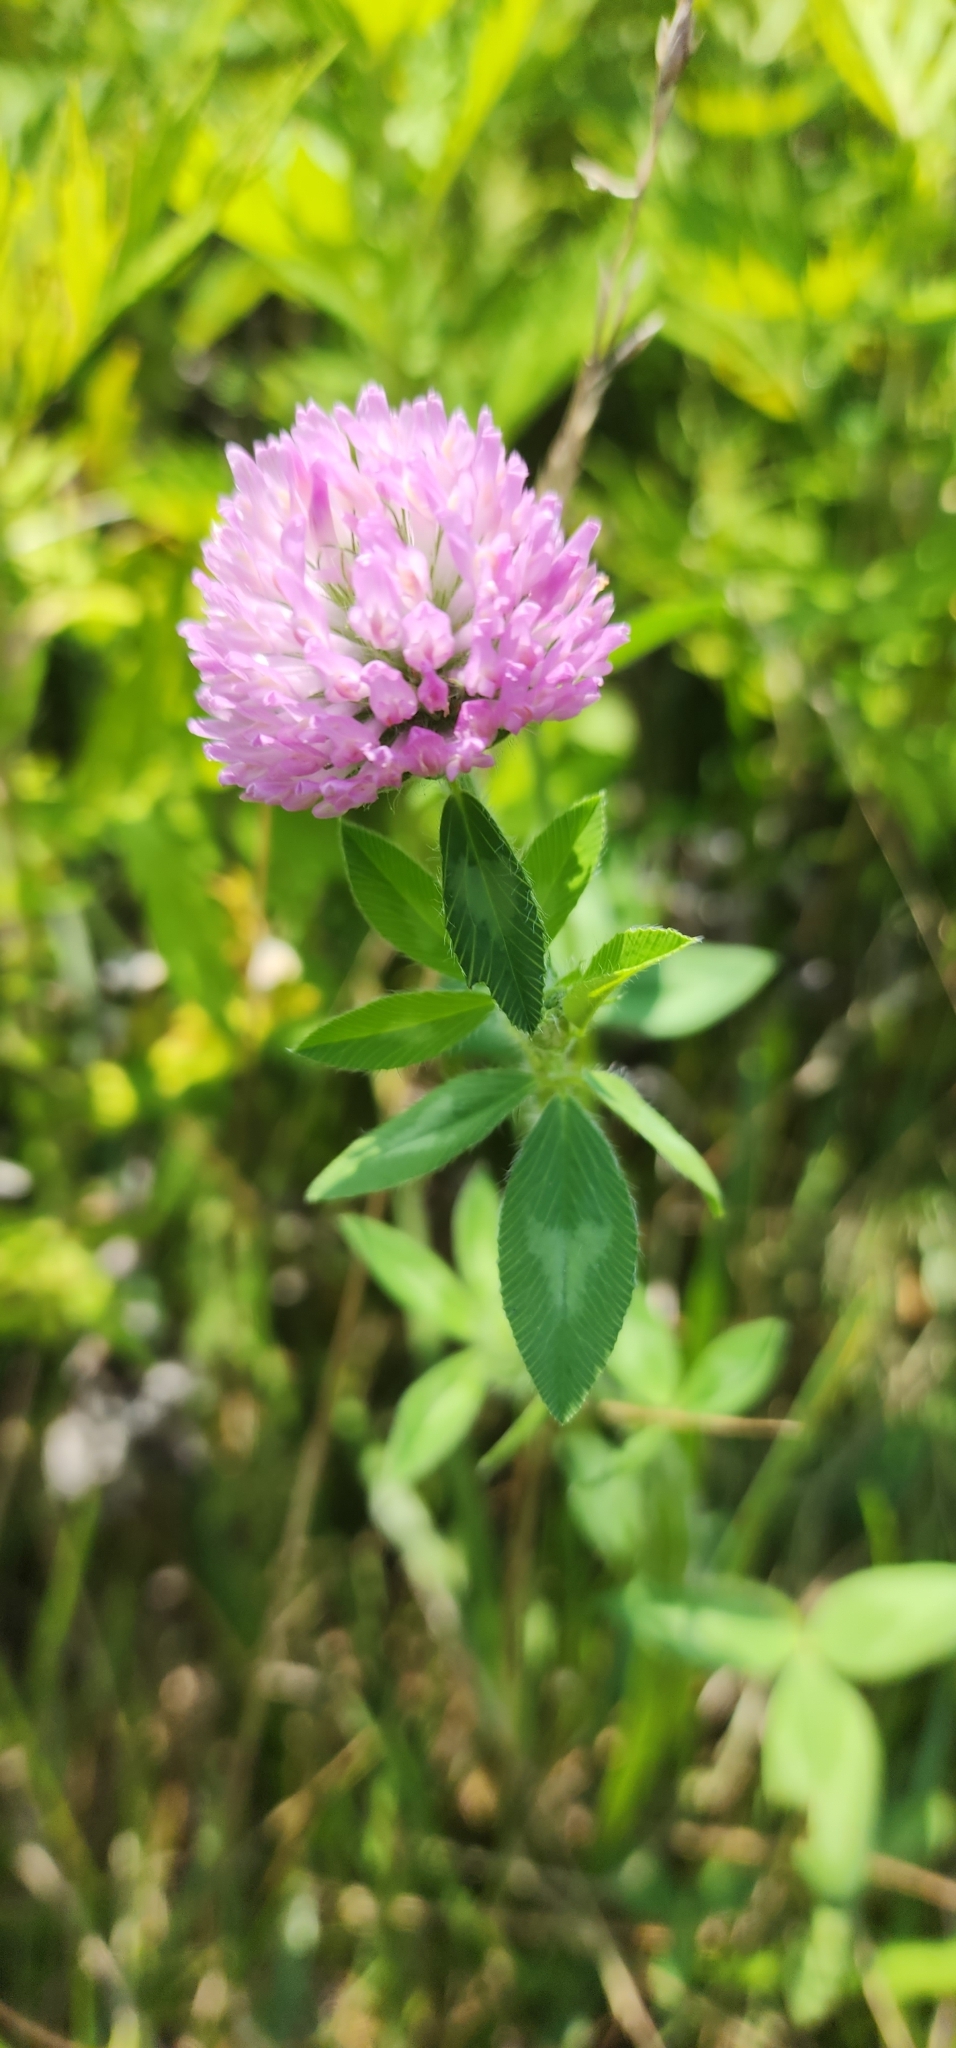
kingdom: Plantae
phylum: Tracheophyta
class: Magnoliopsida
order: Fabales
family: Fabaceae
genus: Trifolium
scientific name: Trifolium pratense
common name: Red clover
